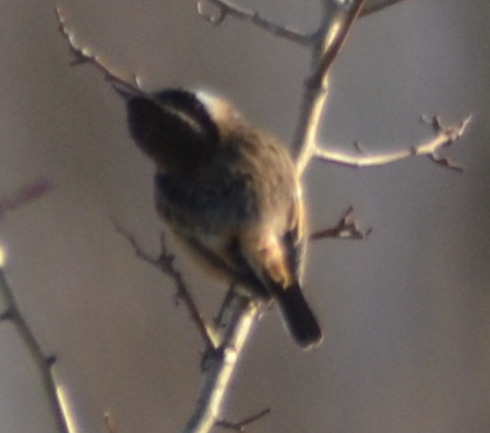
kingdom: Animalia
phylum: Chordata
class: Aves
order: Passeriformes
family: Muscicapidae
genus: Saxicola
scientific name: Saxicola rubicola
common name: European stonechat
